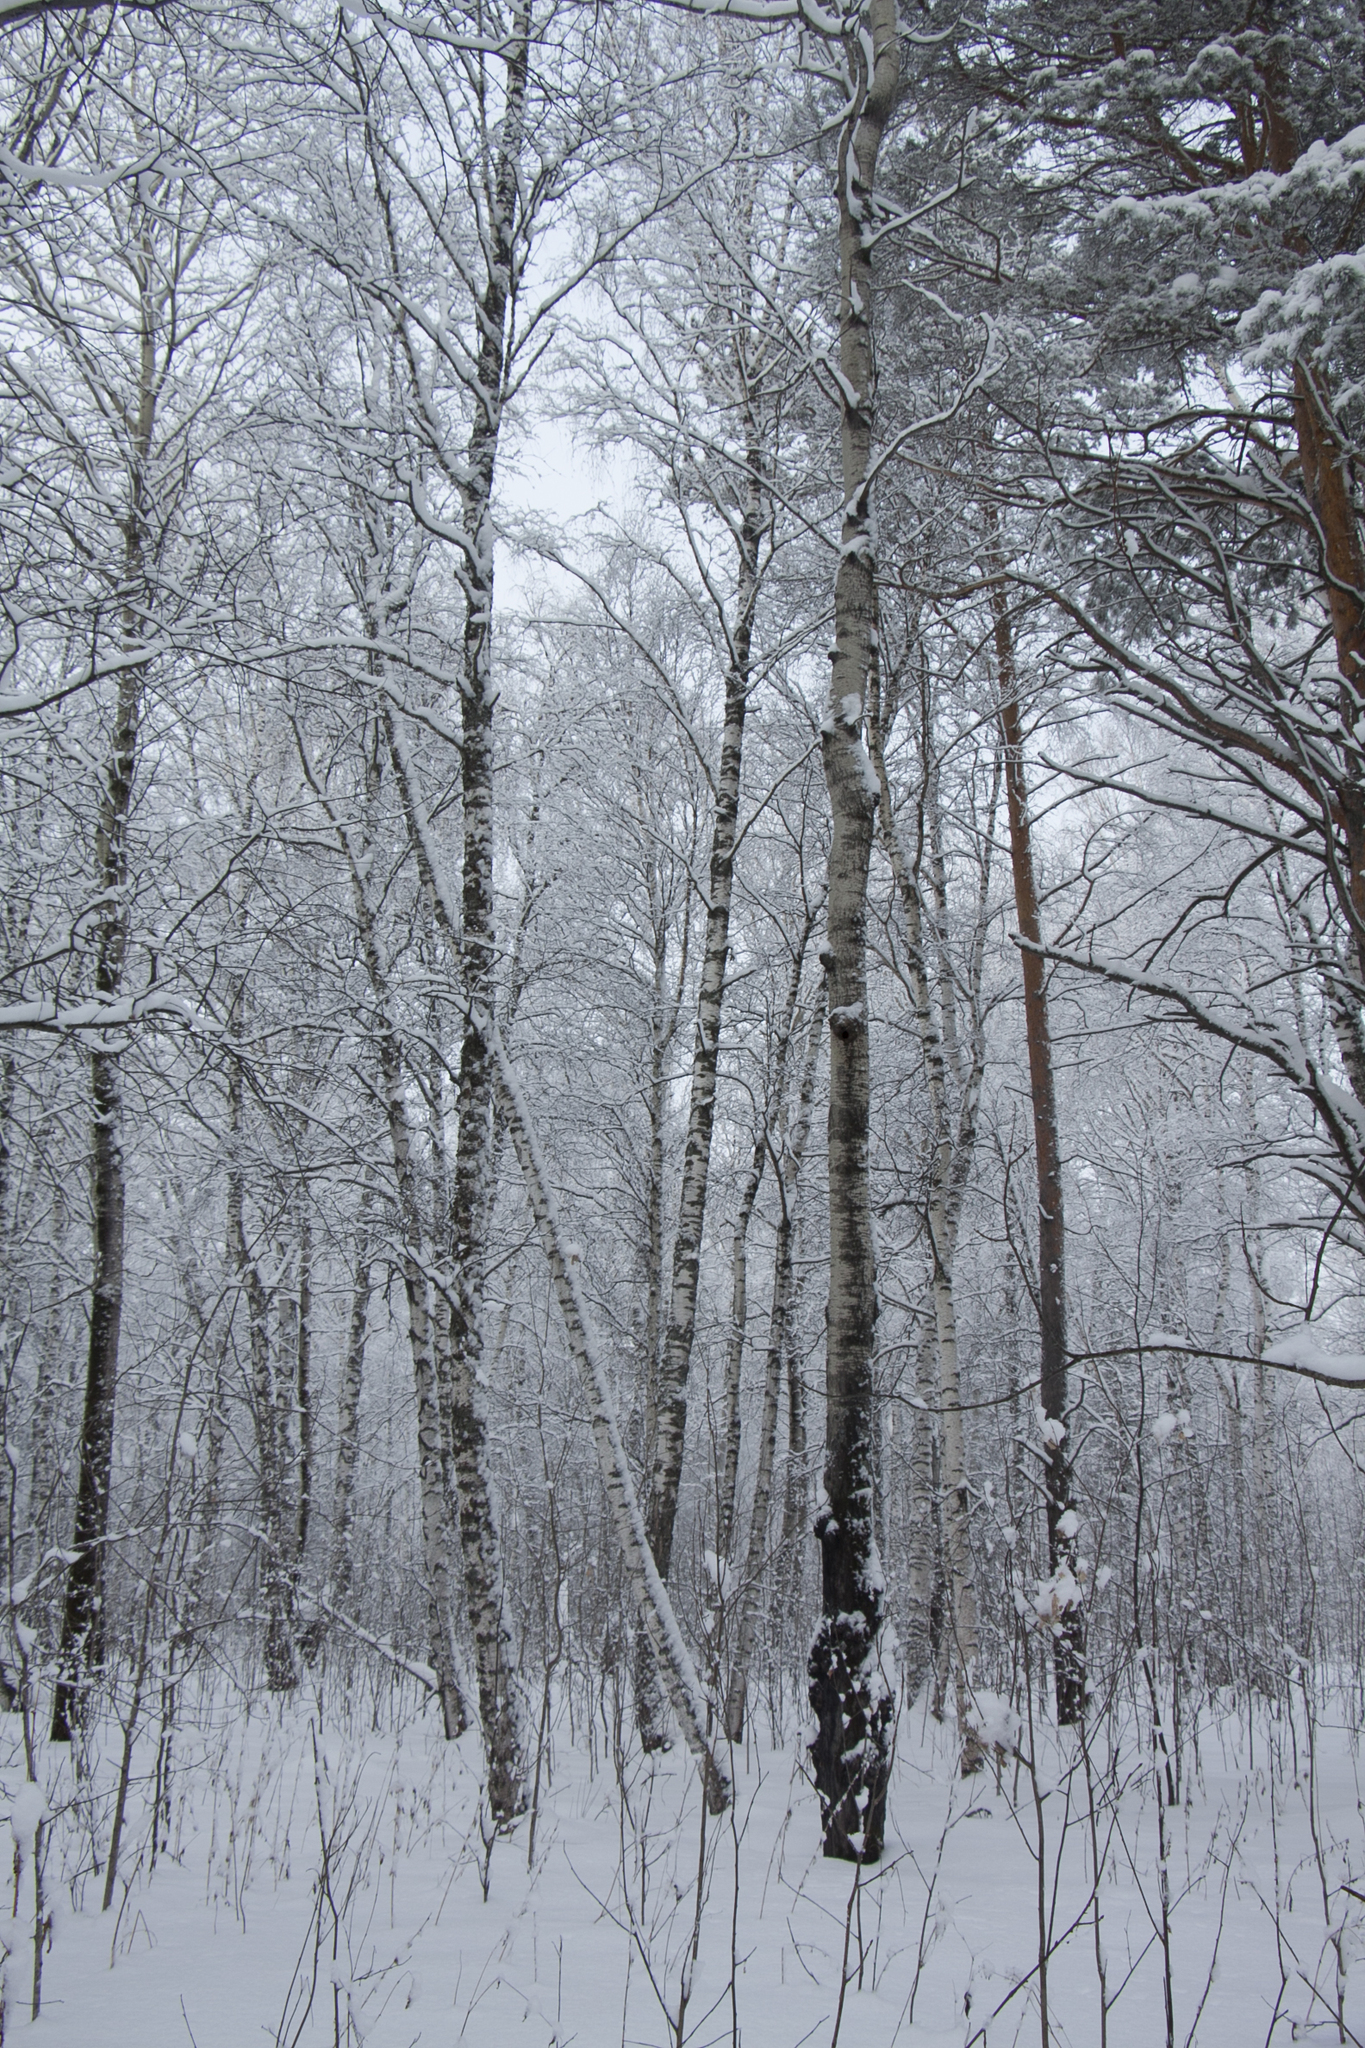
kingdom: Plantae
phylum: Tracheophyta
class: Magnoliopsida
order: Malpighiales
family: Salicaceae
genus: Populus
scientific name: Populus tremula
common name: European aspen
